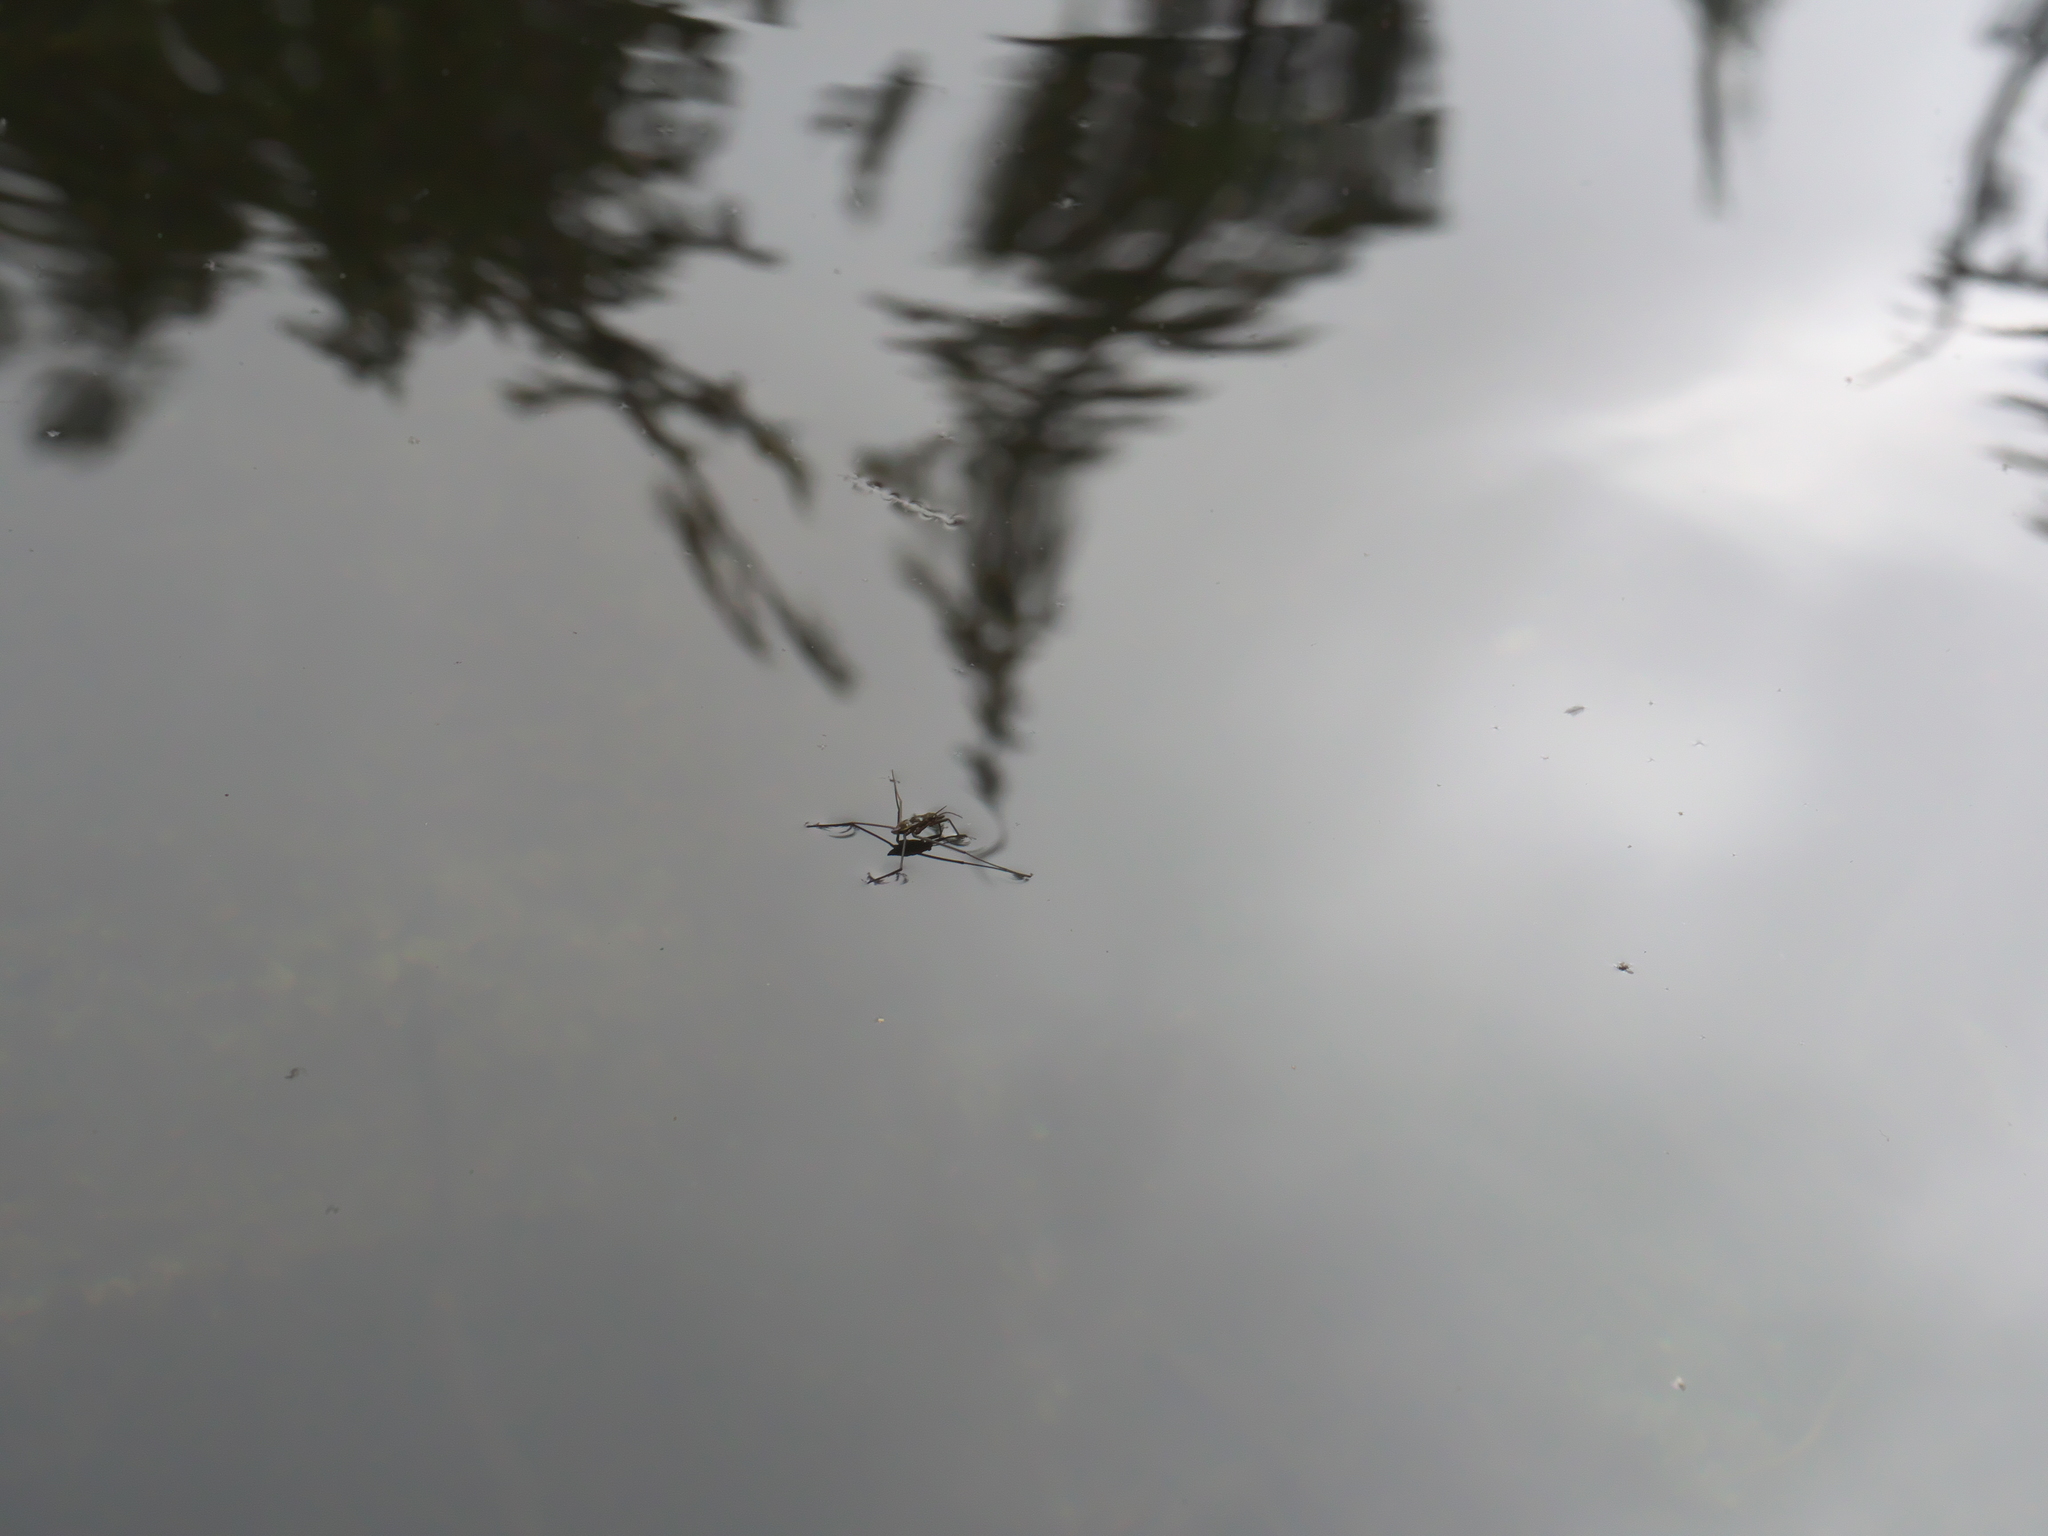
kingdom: Animalia
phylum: Arthropoda
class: Insecta
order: Hemiptera
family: Gerridae
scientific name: Gerridae
